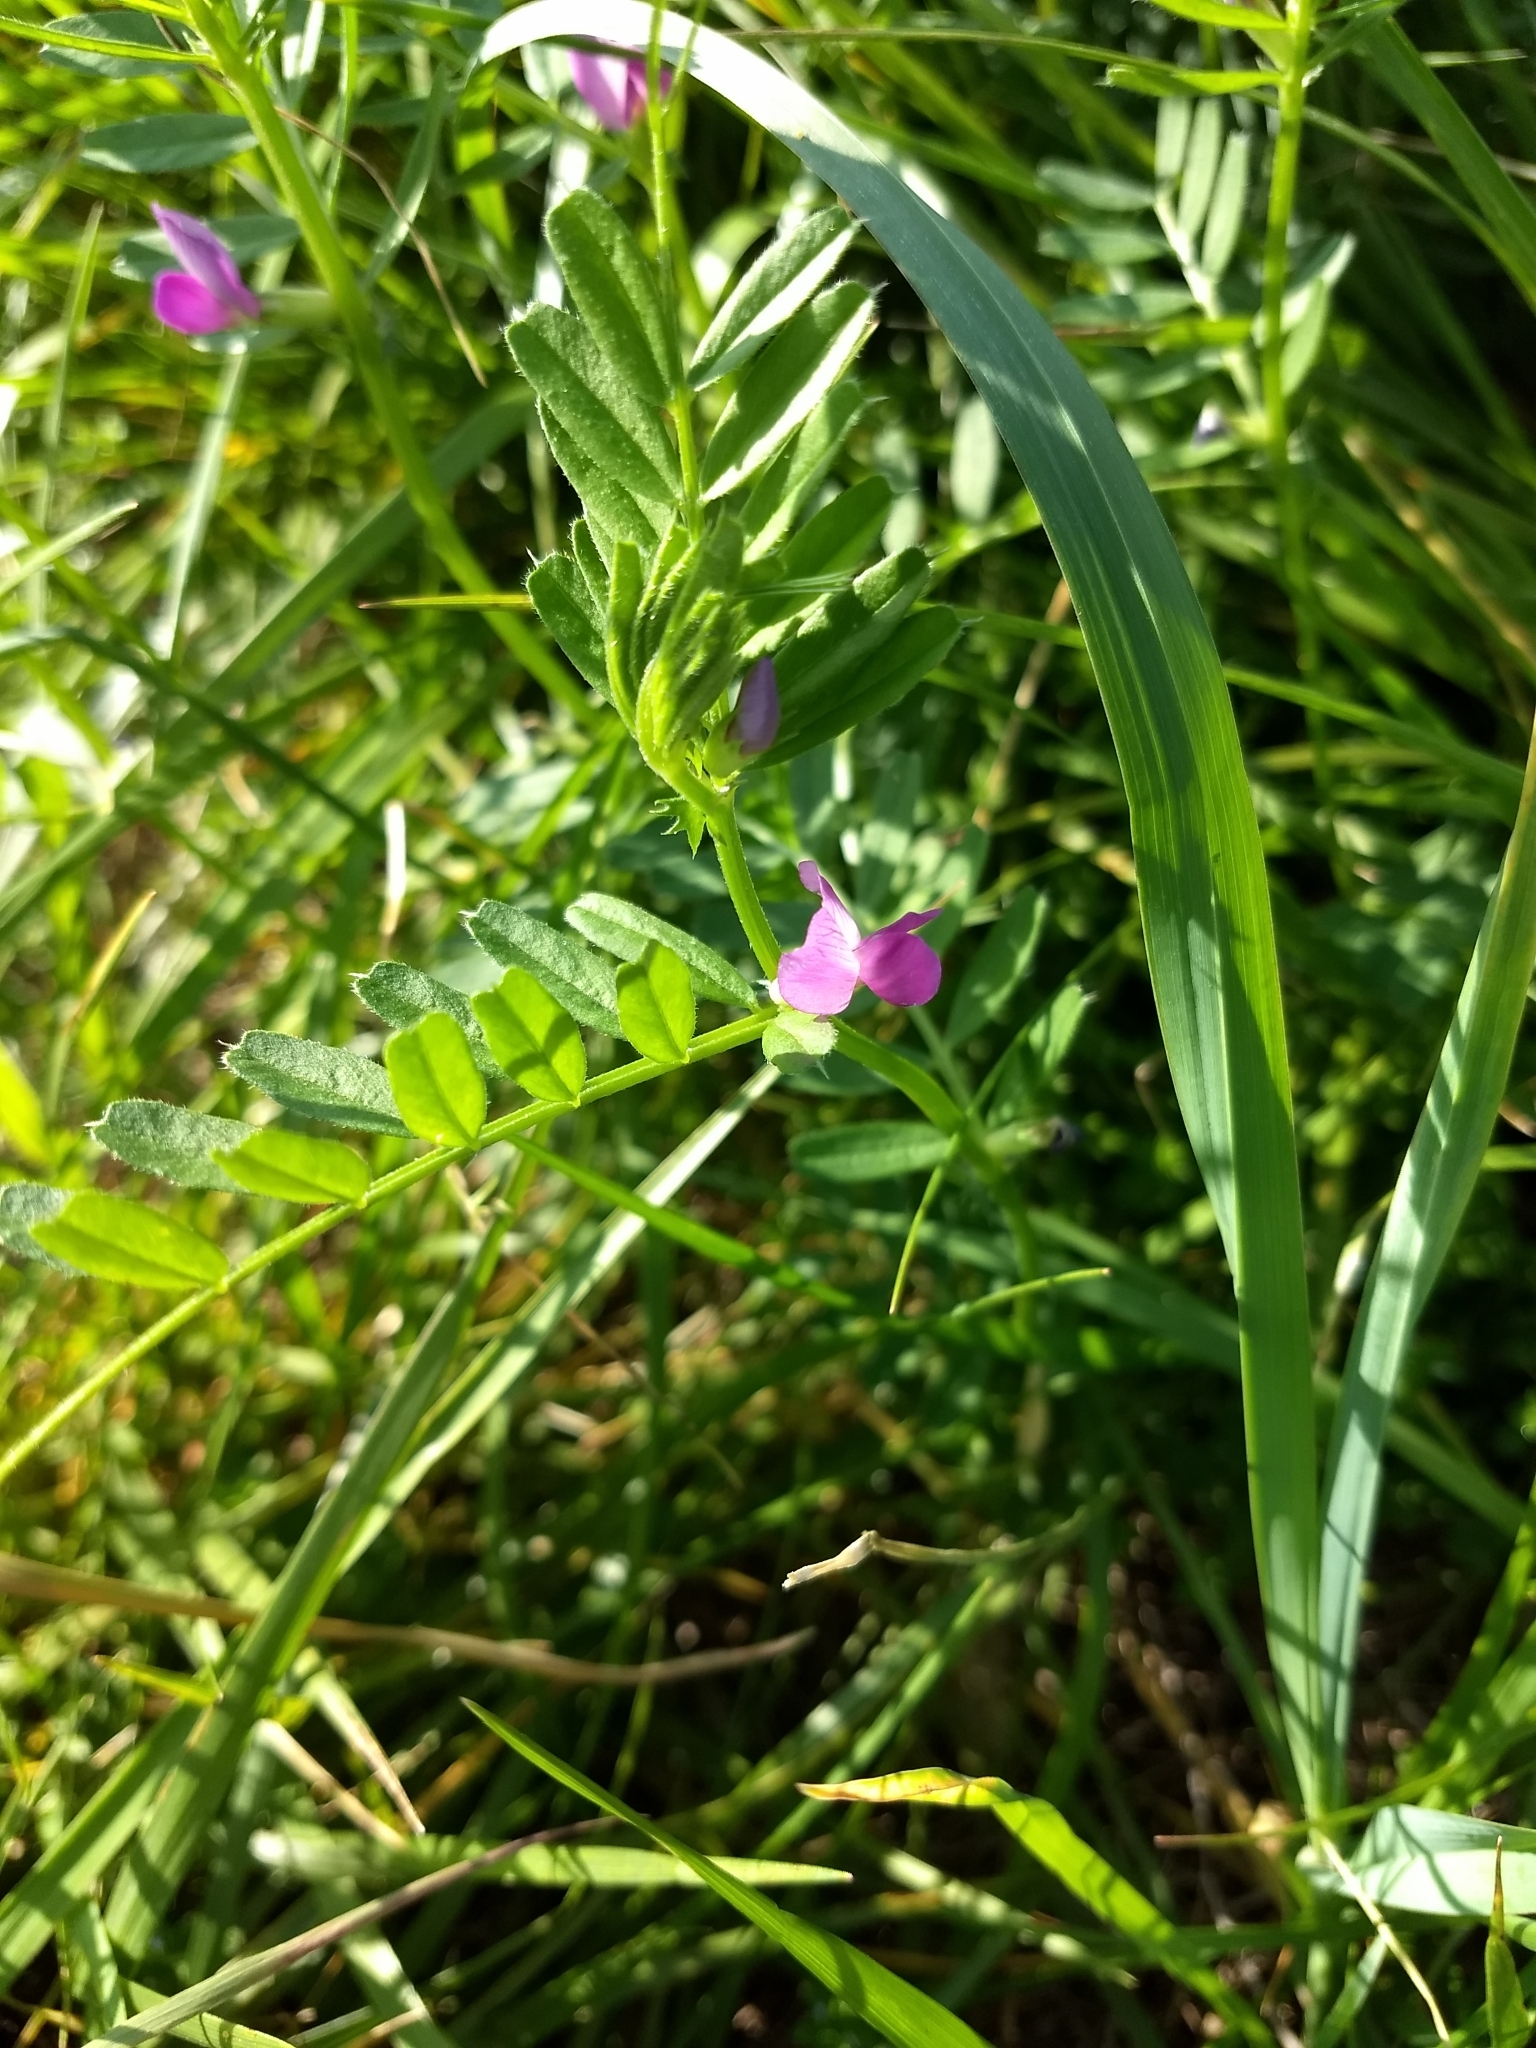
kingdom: Plantae
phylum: Tracheophyta
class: Magnoliopsida
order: Fabales
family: Fabaceae
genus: Vicia
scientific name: Vicia sativa
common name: Garden vetch
